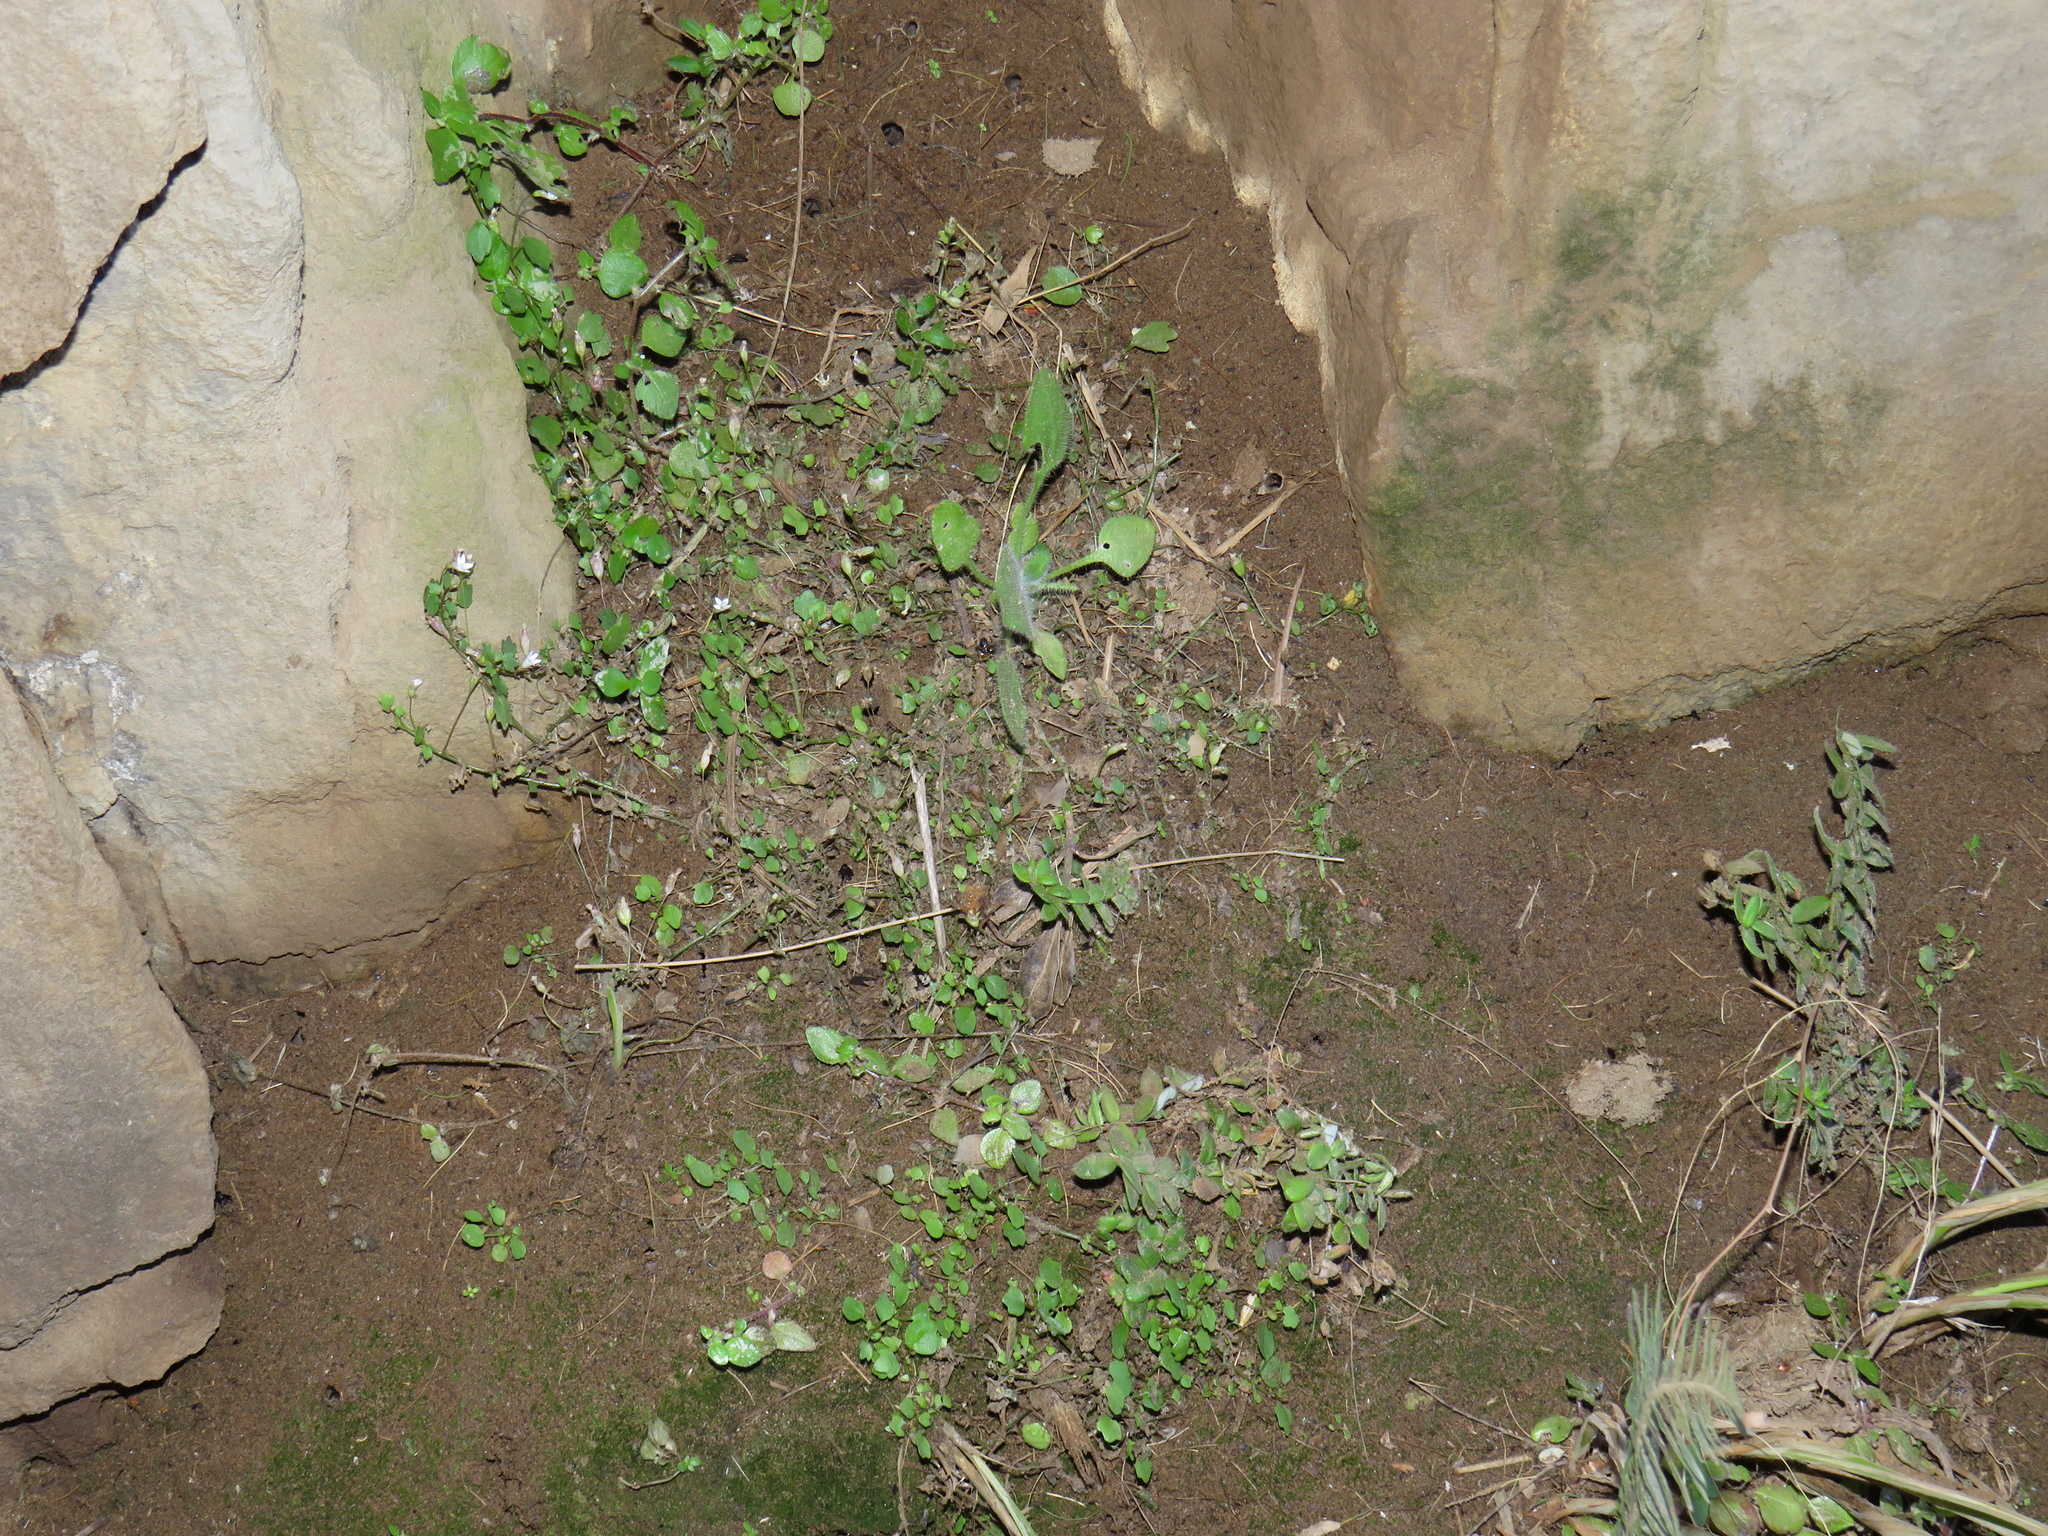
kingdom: Plantae
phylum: Tracheophyta
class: Magnoliopsida
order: Asterales
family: Campanulaceae
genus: Wimmerella
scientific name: Wimmerella pygmaea
